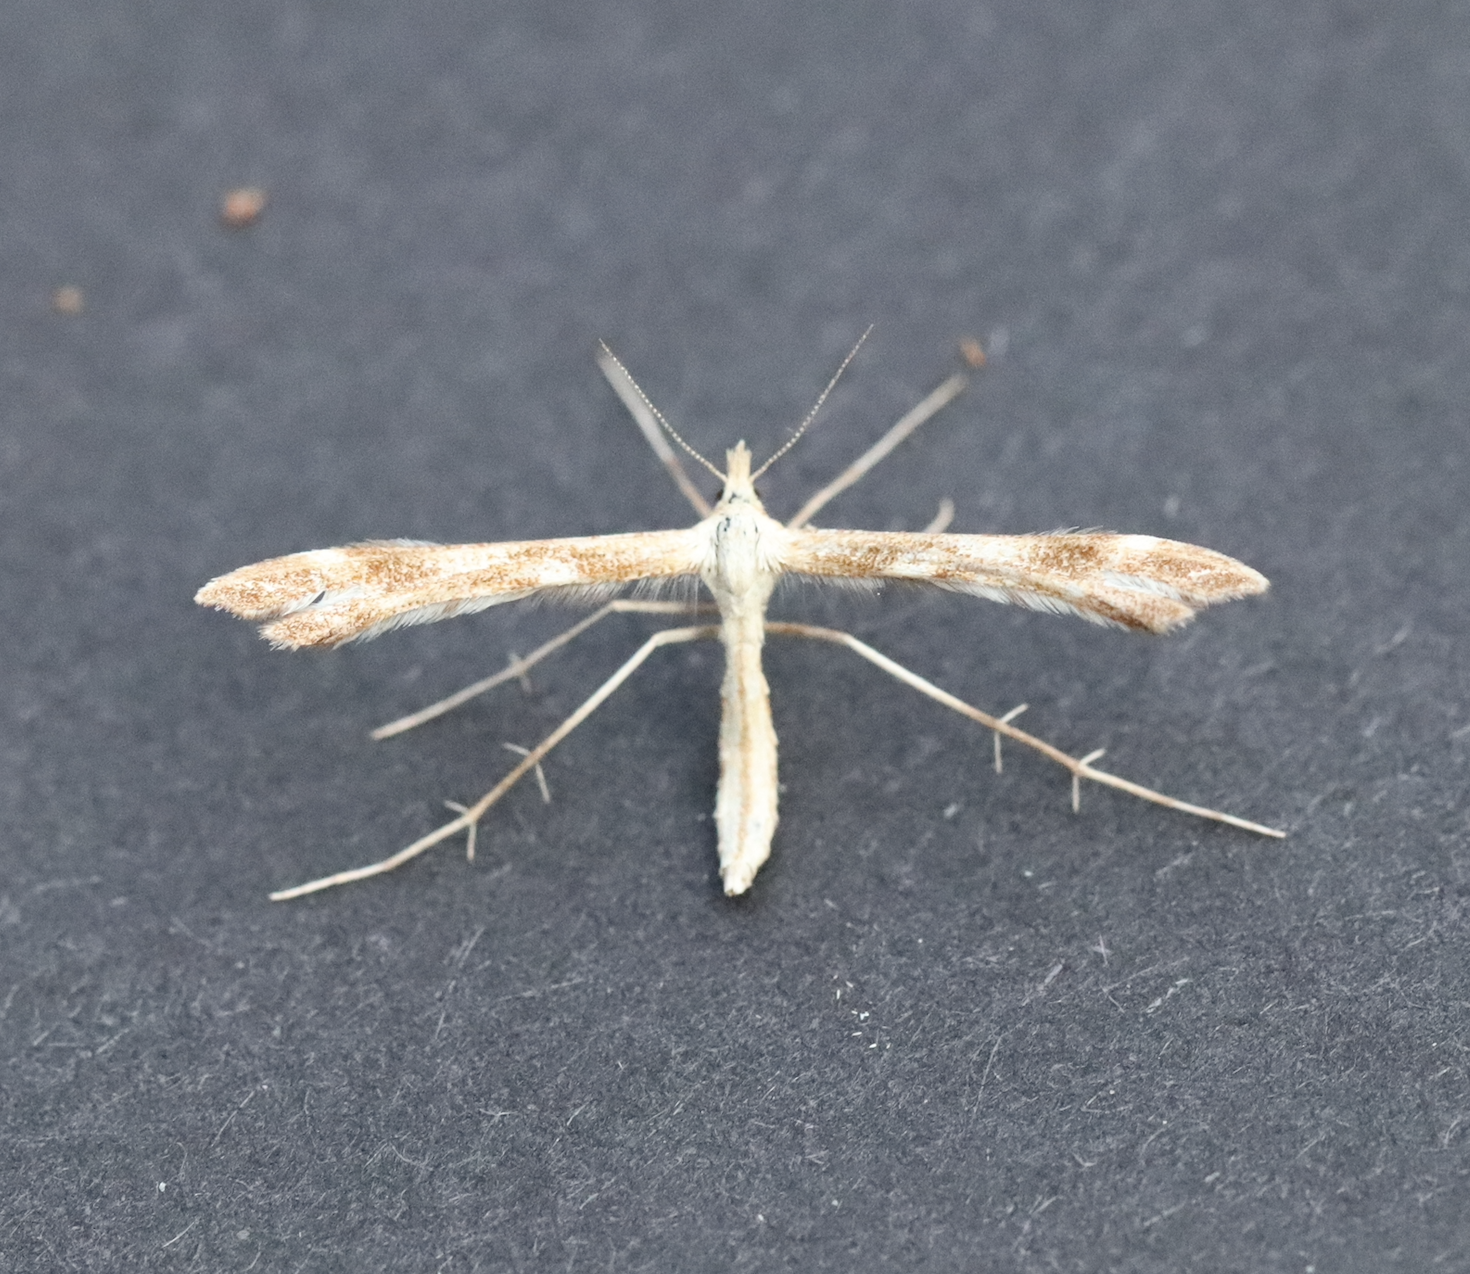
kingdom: Animalia
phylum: Arthropoda
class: Insecta
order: Lepidoptera
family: Pterophoridae
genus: Gillmeria
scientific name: Gillmeria pallidactyla
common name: Yarrow plume
